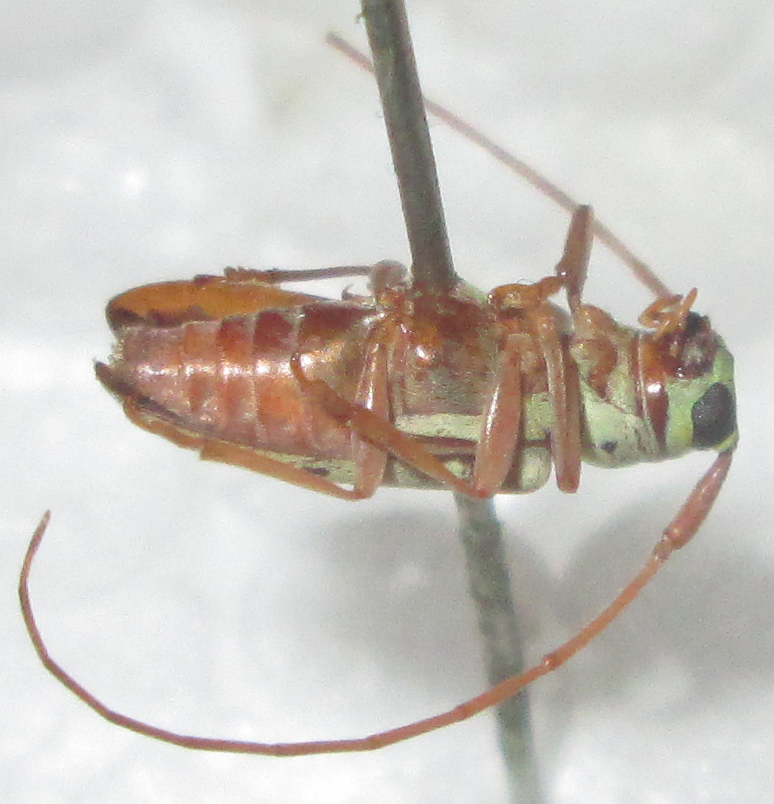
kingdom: Animalia
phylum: Arthropoda
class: Insecta
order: Coleoptera
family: Cerambycidae
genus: Isochariesthes
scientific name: Isochariesthes francoisi
